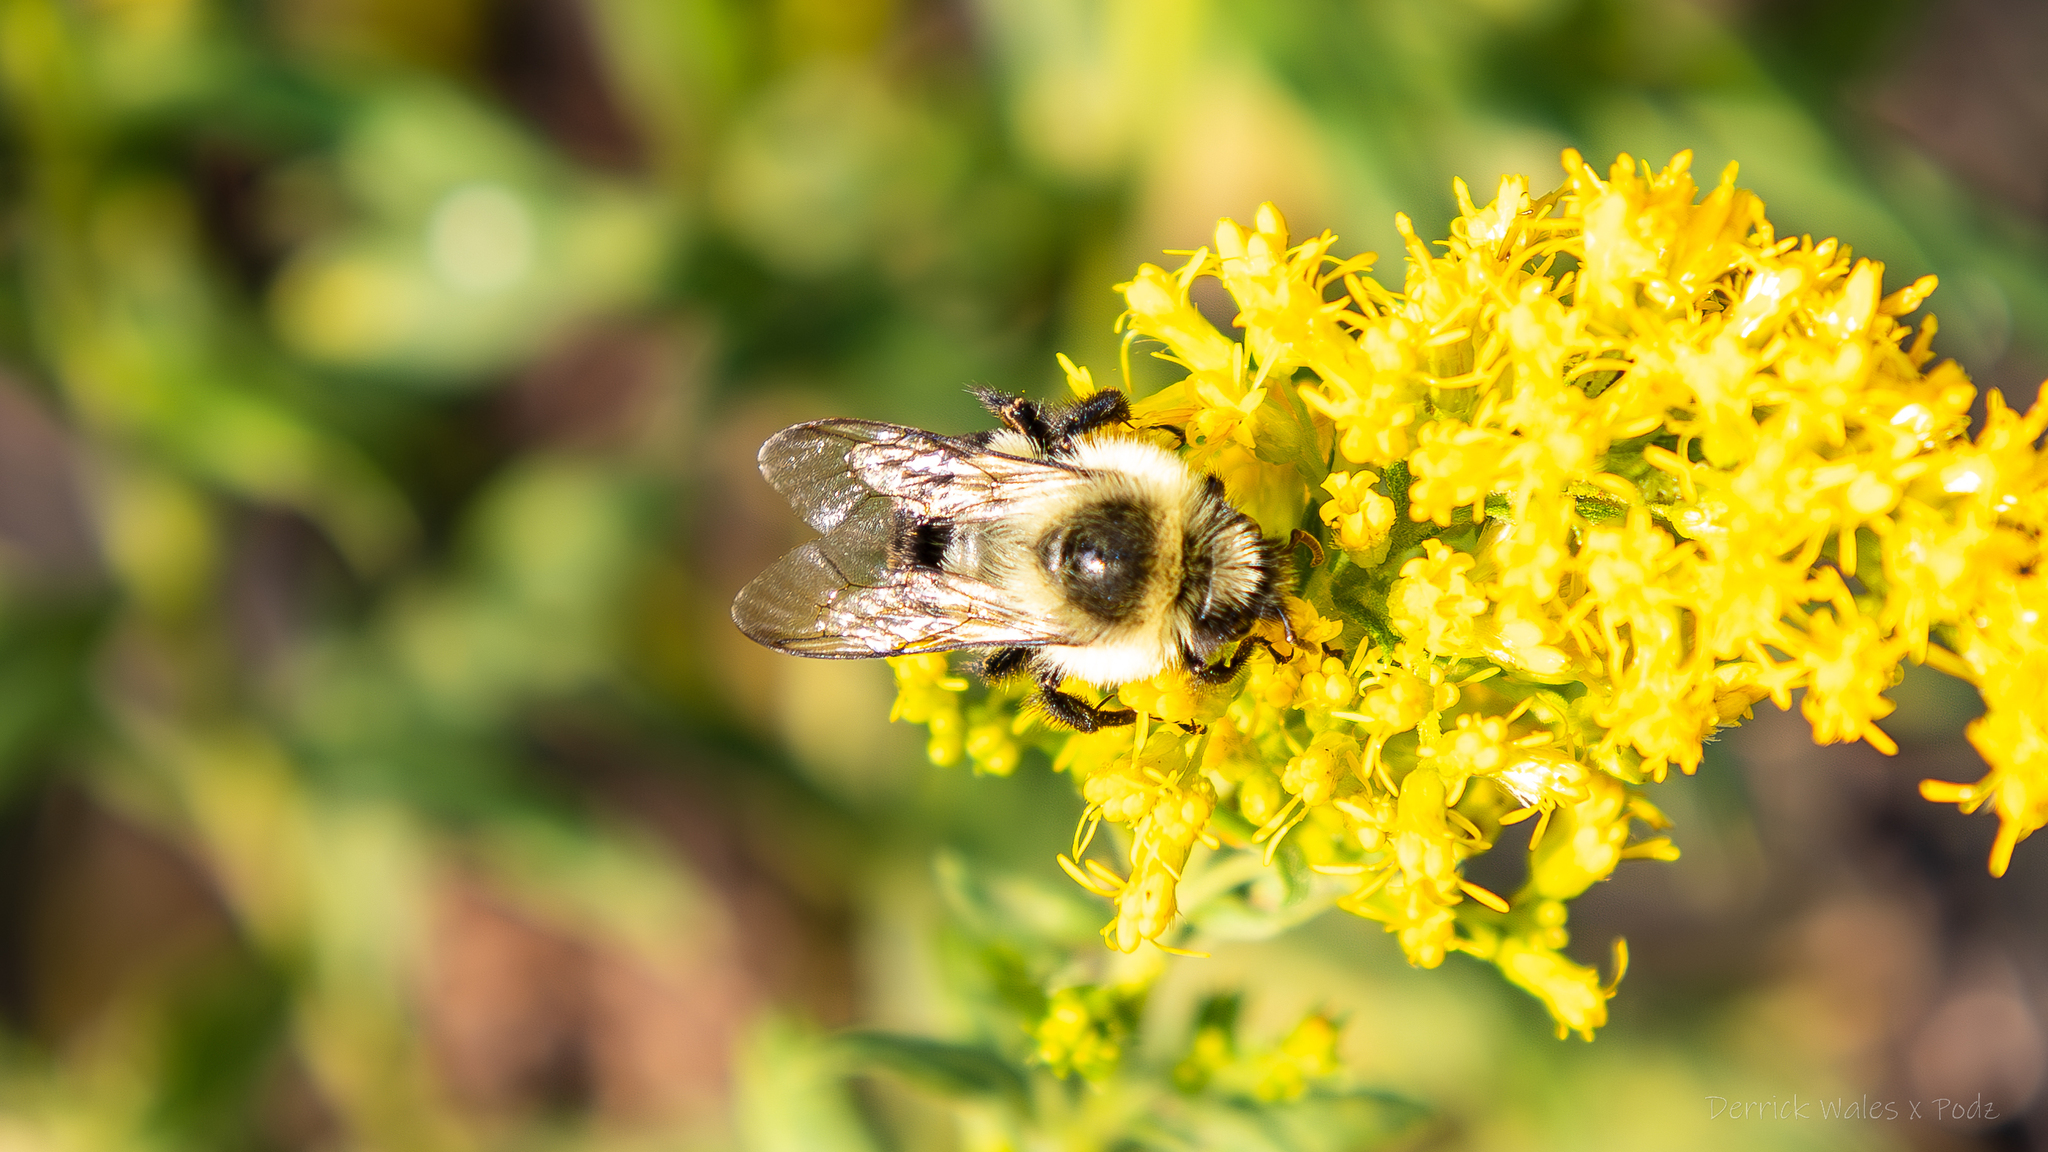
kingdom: Animalia
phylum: Arthropoda
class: Insecta
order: Hymenoptera
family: Apidae
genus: Bombus
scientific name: Bombus impatiens
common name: Common eastern bumble bee
